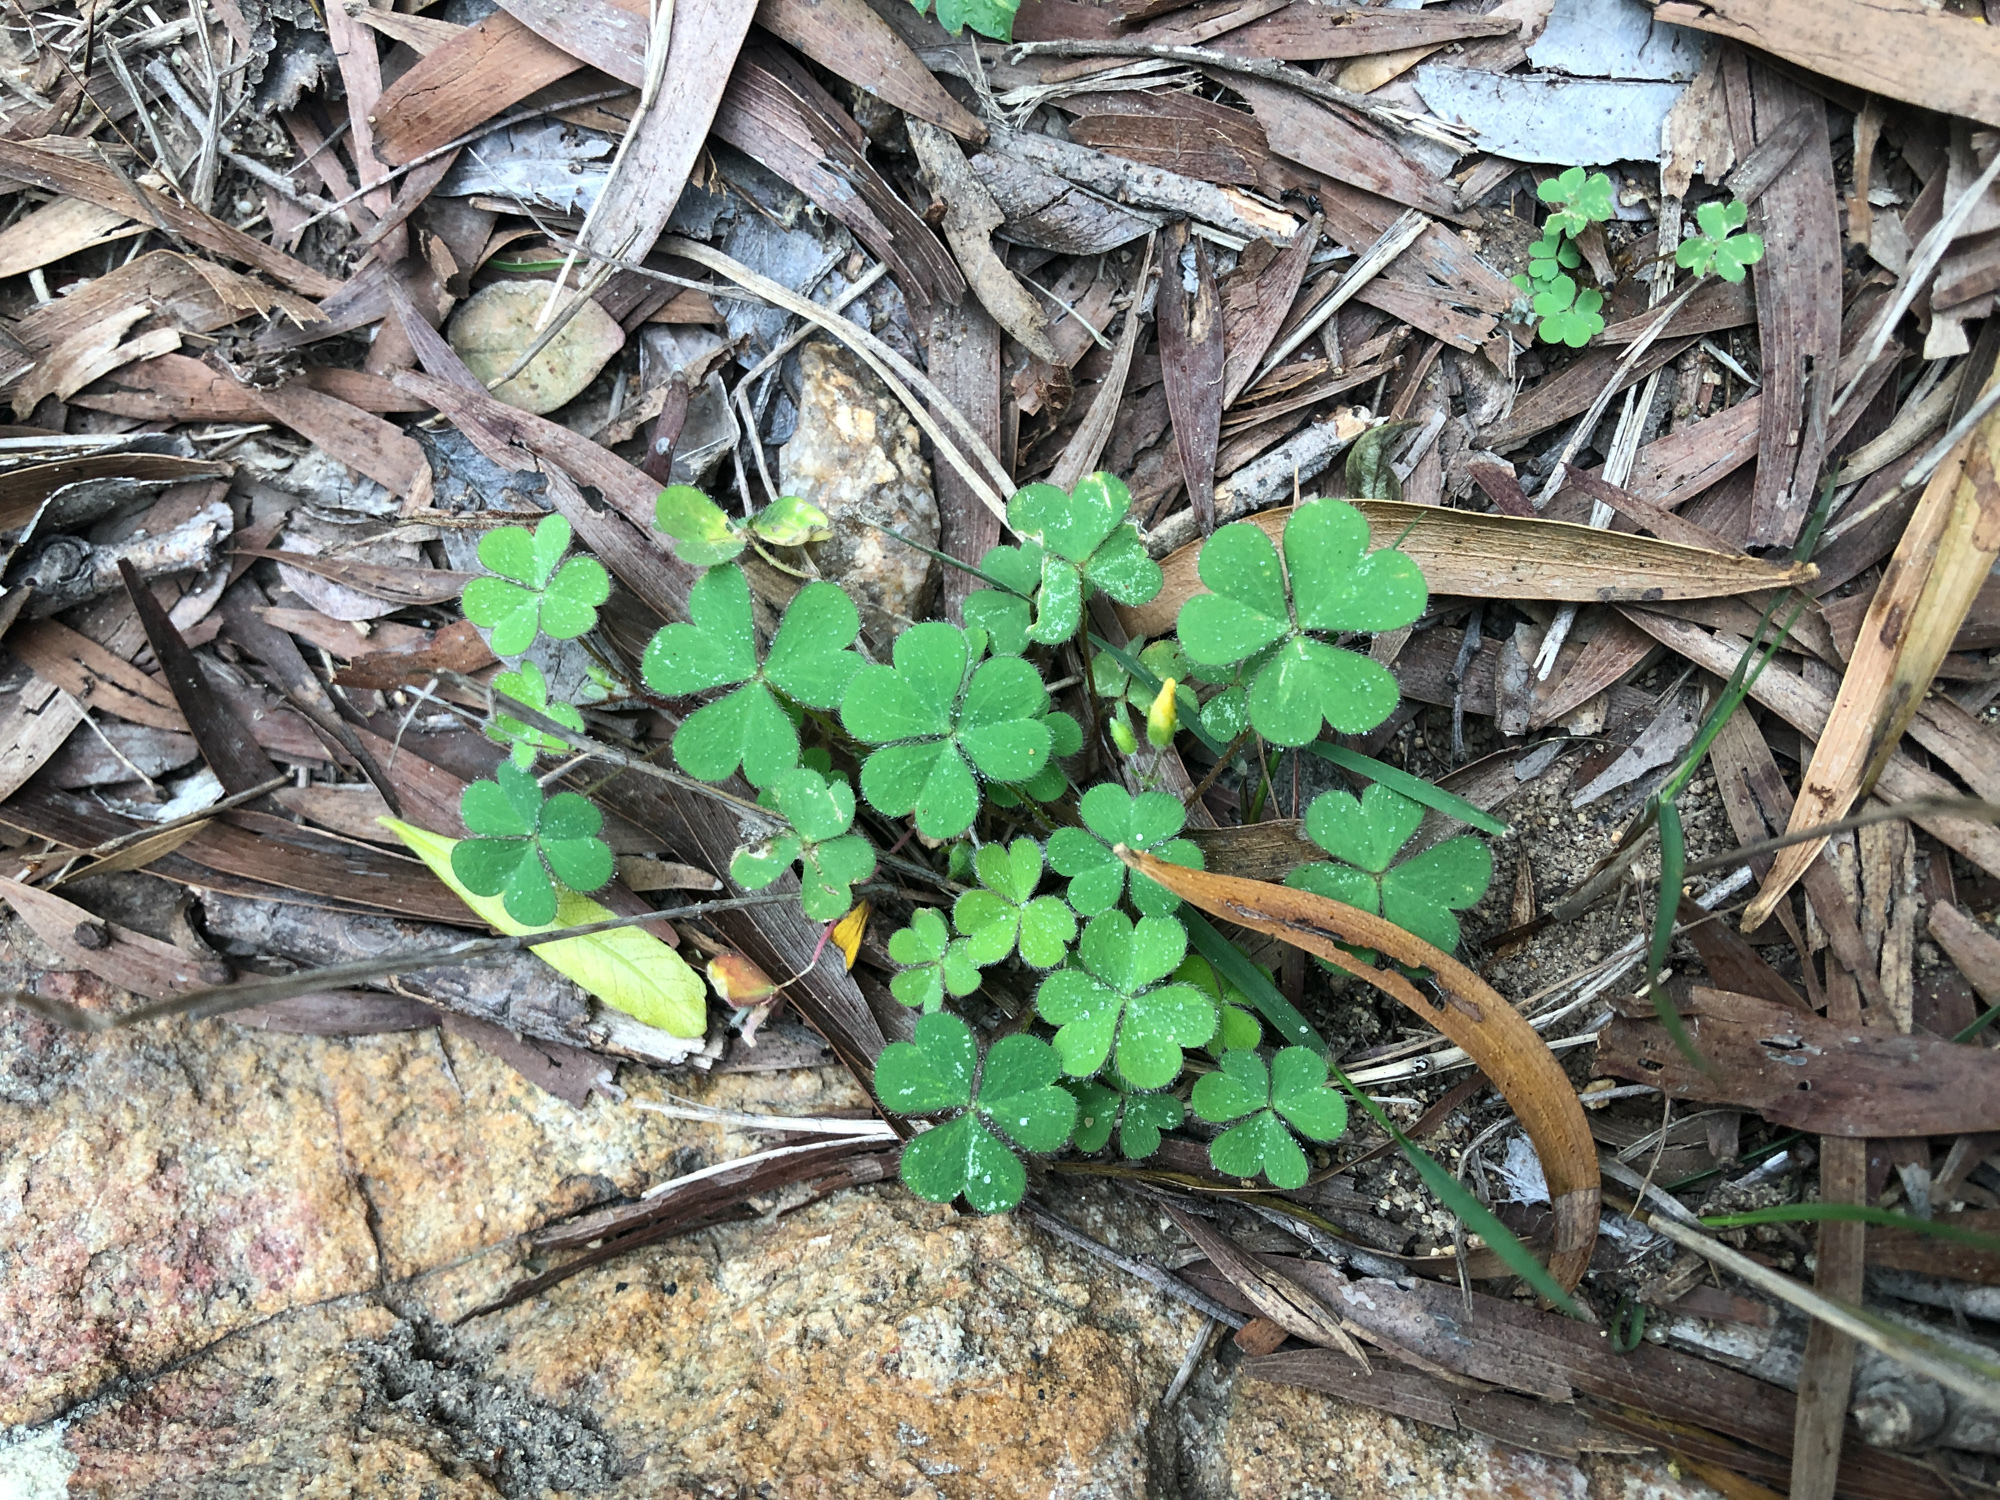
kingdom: Plantae
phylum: Tracheophyta
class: Magnoliopsida
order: Oxalidales
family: Oxalidaceae
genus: Oxalis
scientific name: Oxalis corniculata
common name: Procumbent yellow-sorrel
